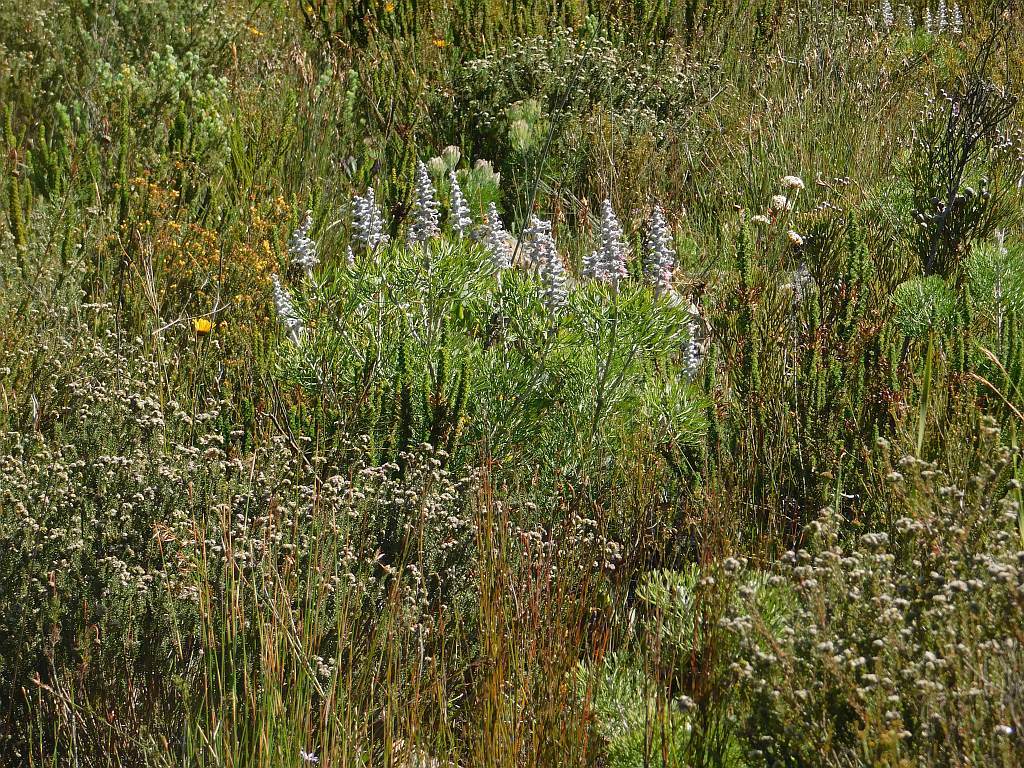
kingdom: Plantae
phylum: Tracheophyta
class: Magnoliopsida
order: Proteales
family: Proteaceae
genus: Paranomus
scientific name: Paranomus dispersus
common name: Long-head sceptre
